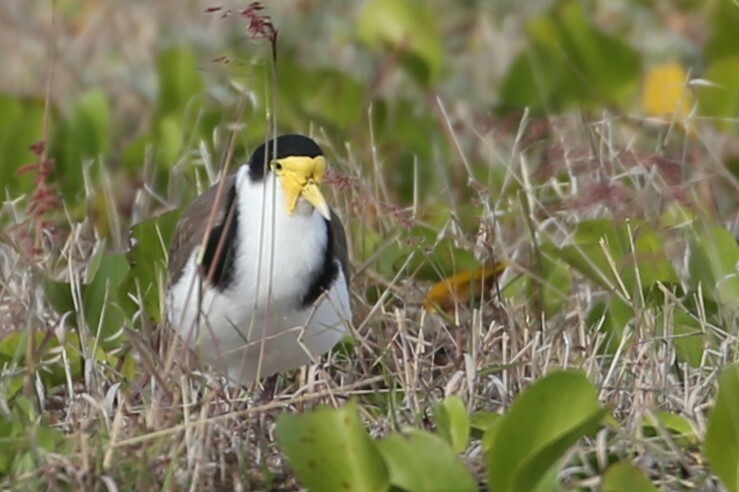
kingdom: Animalia
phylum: Chordata
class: Aves
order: Charadriiformes
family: Charadriidae
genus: Vanellus
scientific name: Vanellus miles
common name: Masked lapwing
